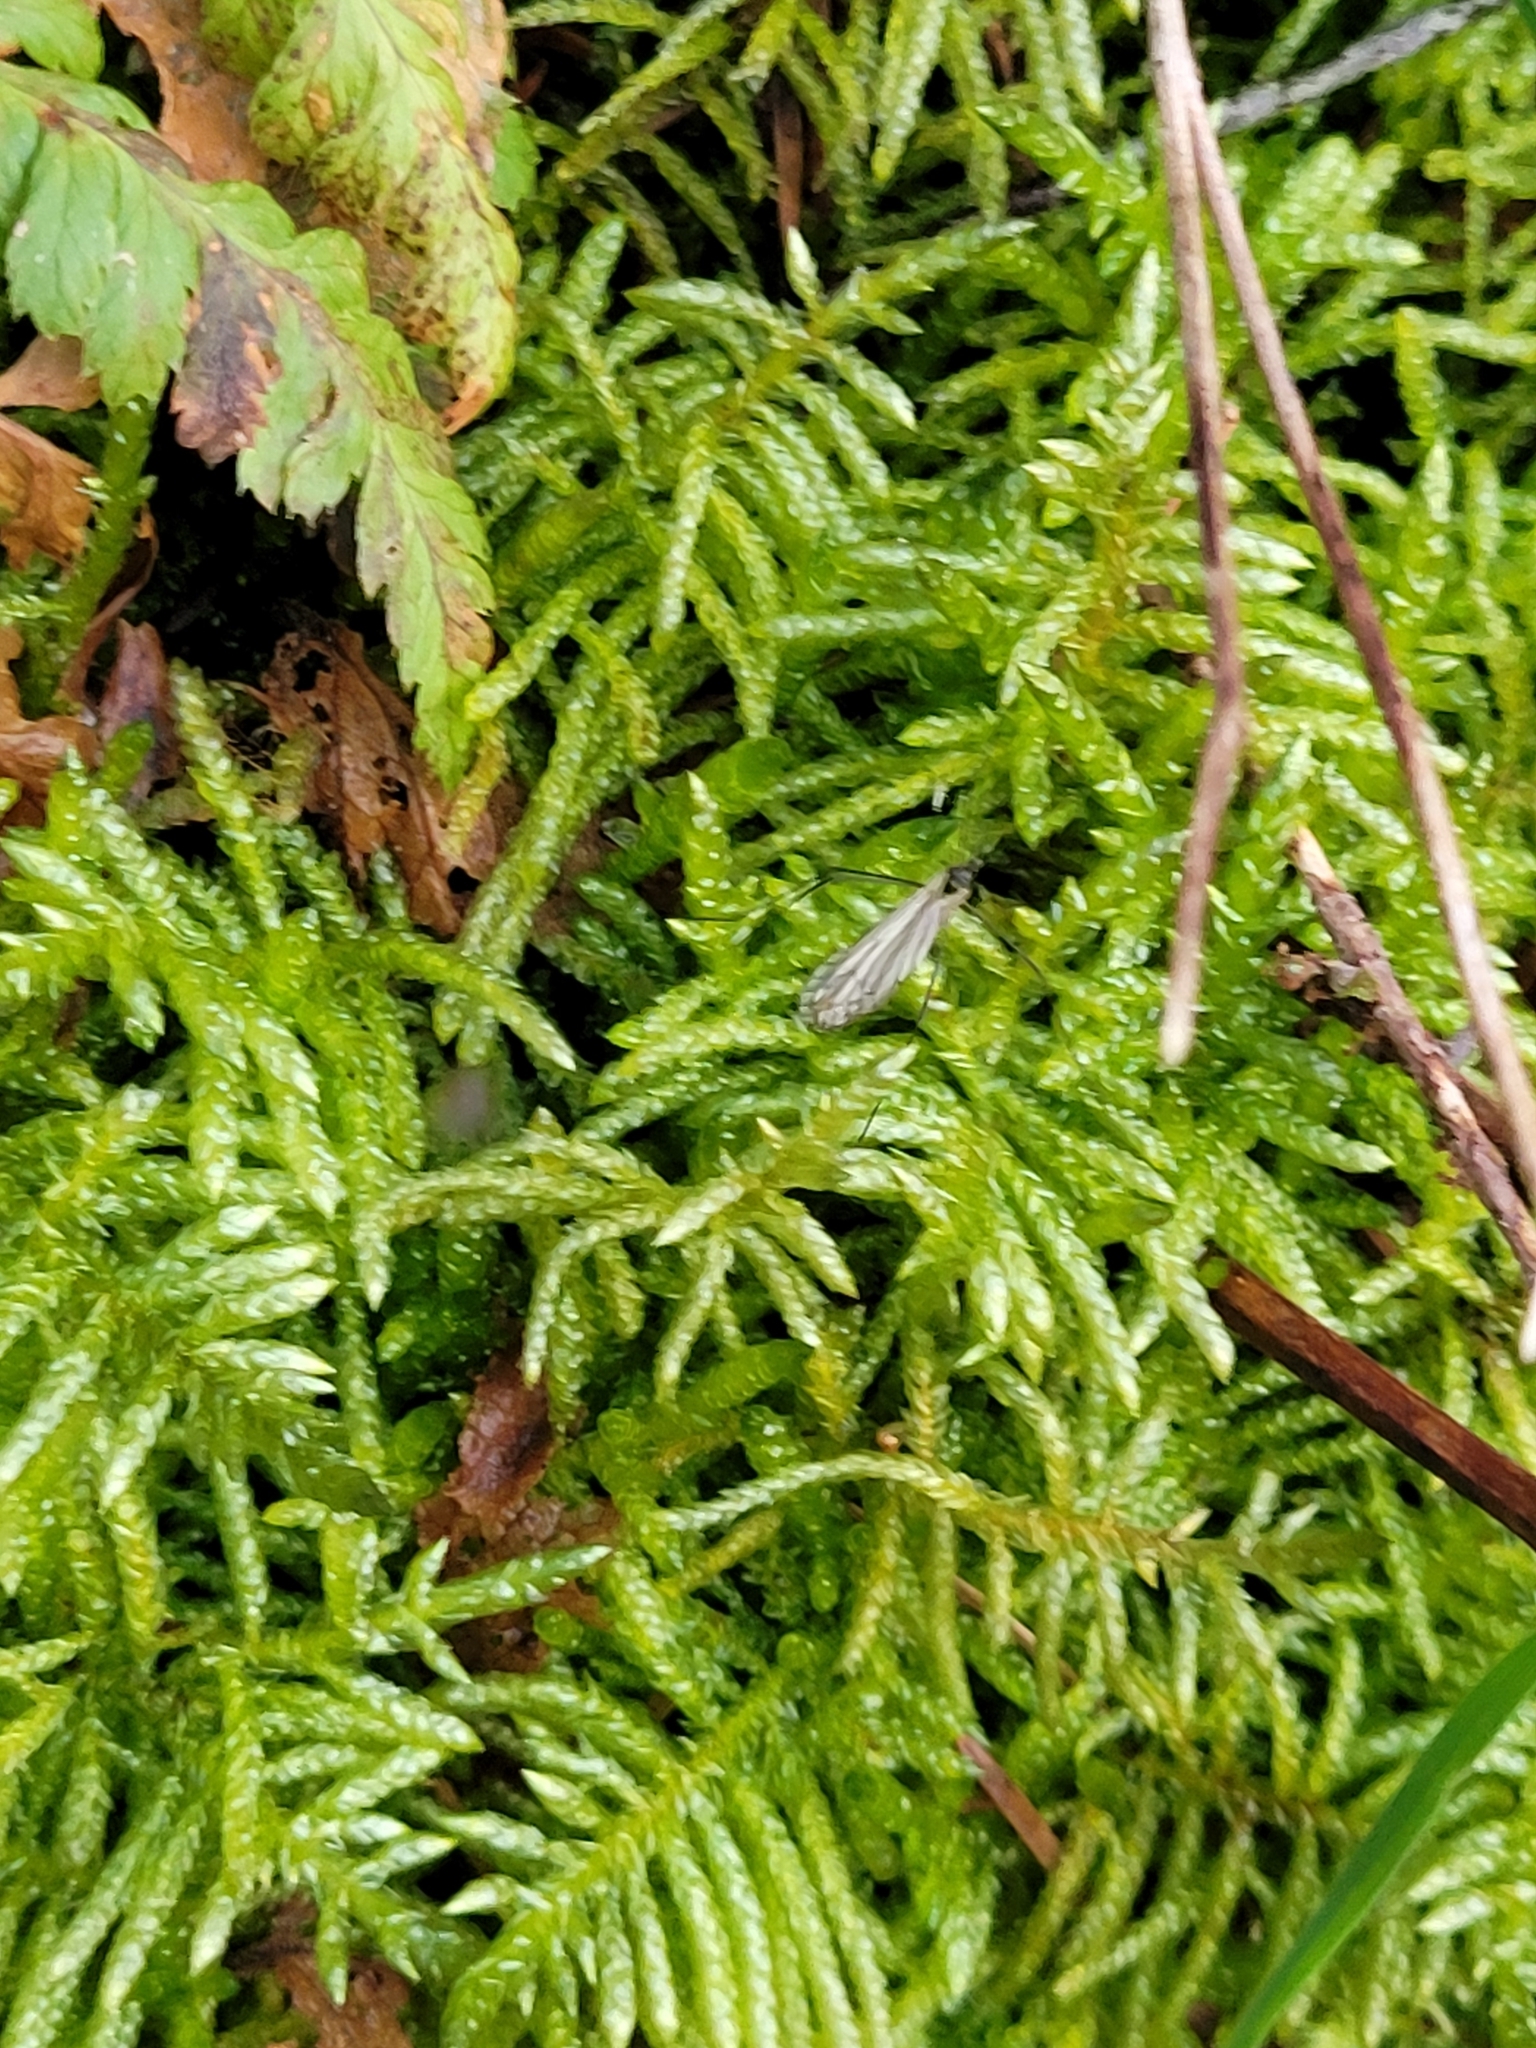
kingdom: Plantae
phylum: Bryophyta
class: Bryopsida
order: Hypnales
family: Brachytheciaceae
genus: Pseudoscleropodium
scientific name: Pseudoscleropodium purum
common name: Neat feather-moss
